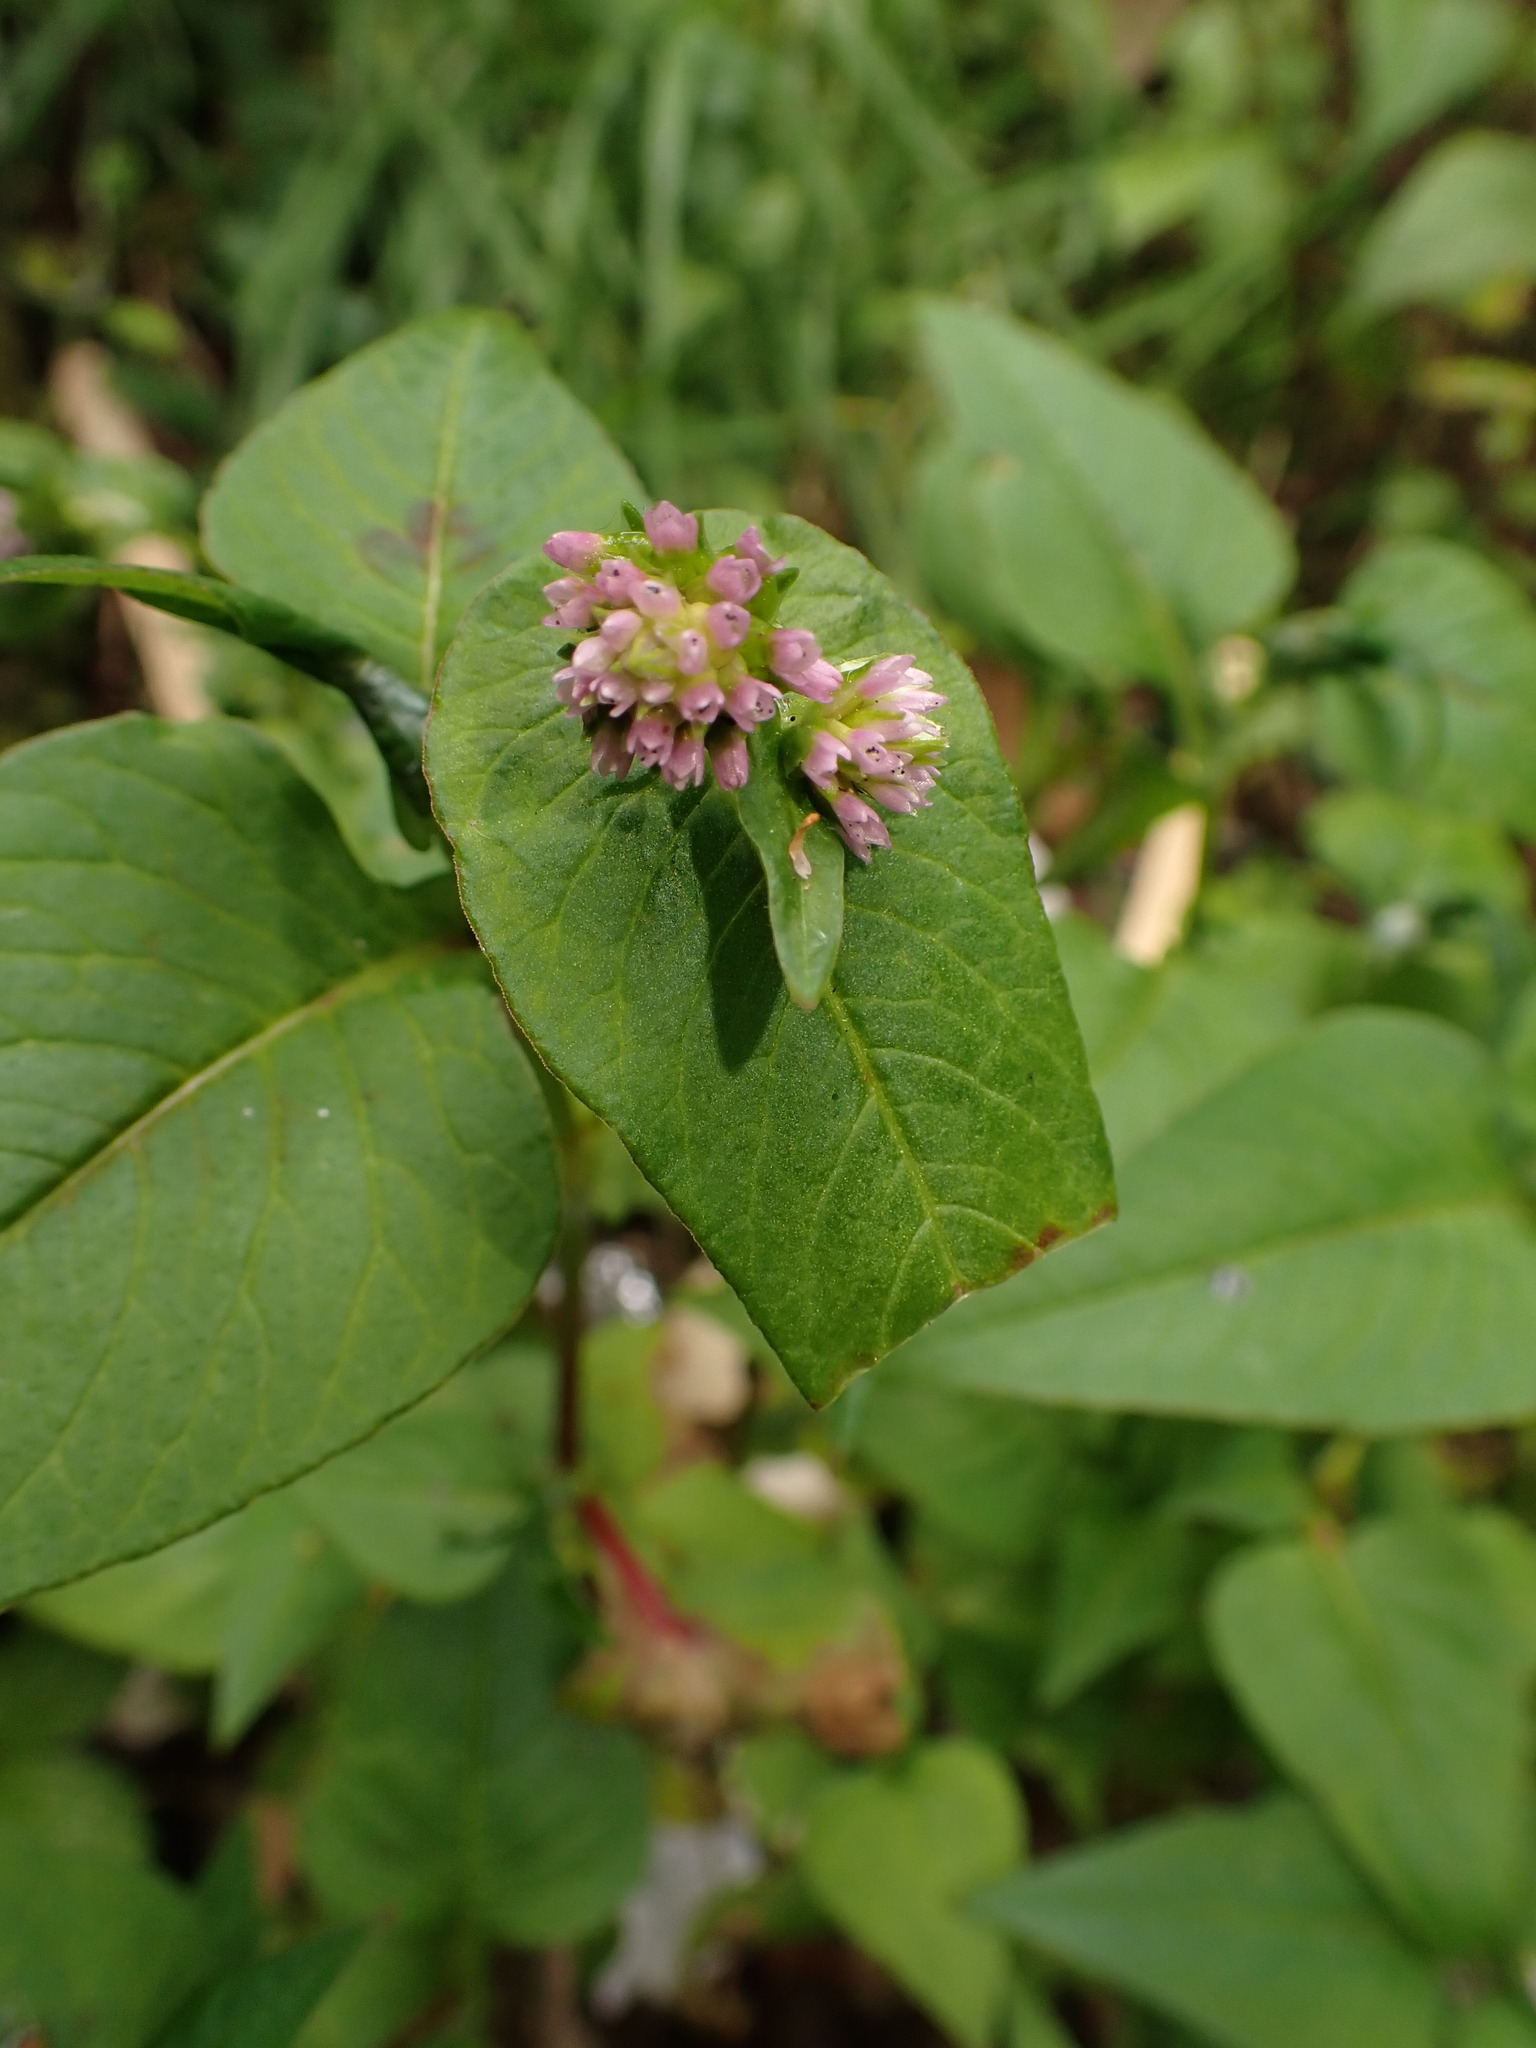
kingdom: Plantae
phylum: Tracheophyta
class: Magnoliopsida
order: Caryophyllales
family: Polygonaceae
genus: Persicaria
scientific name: Persicaria nepalensis
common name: Nepal persicaria
